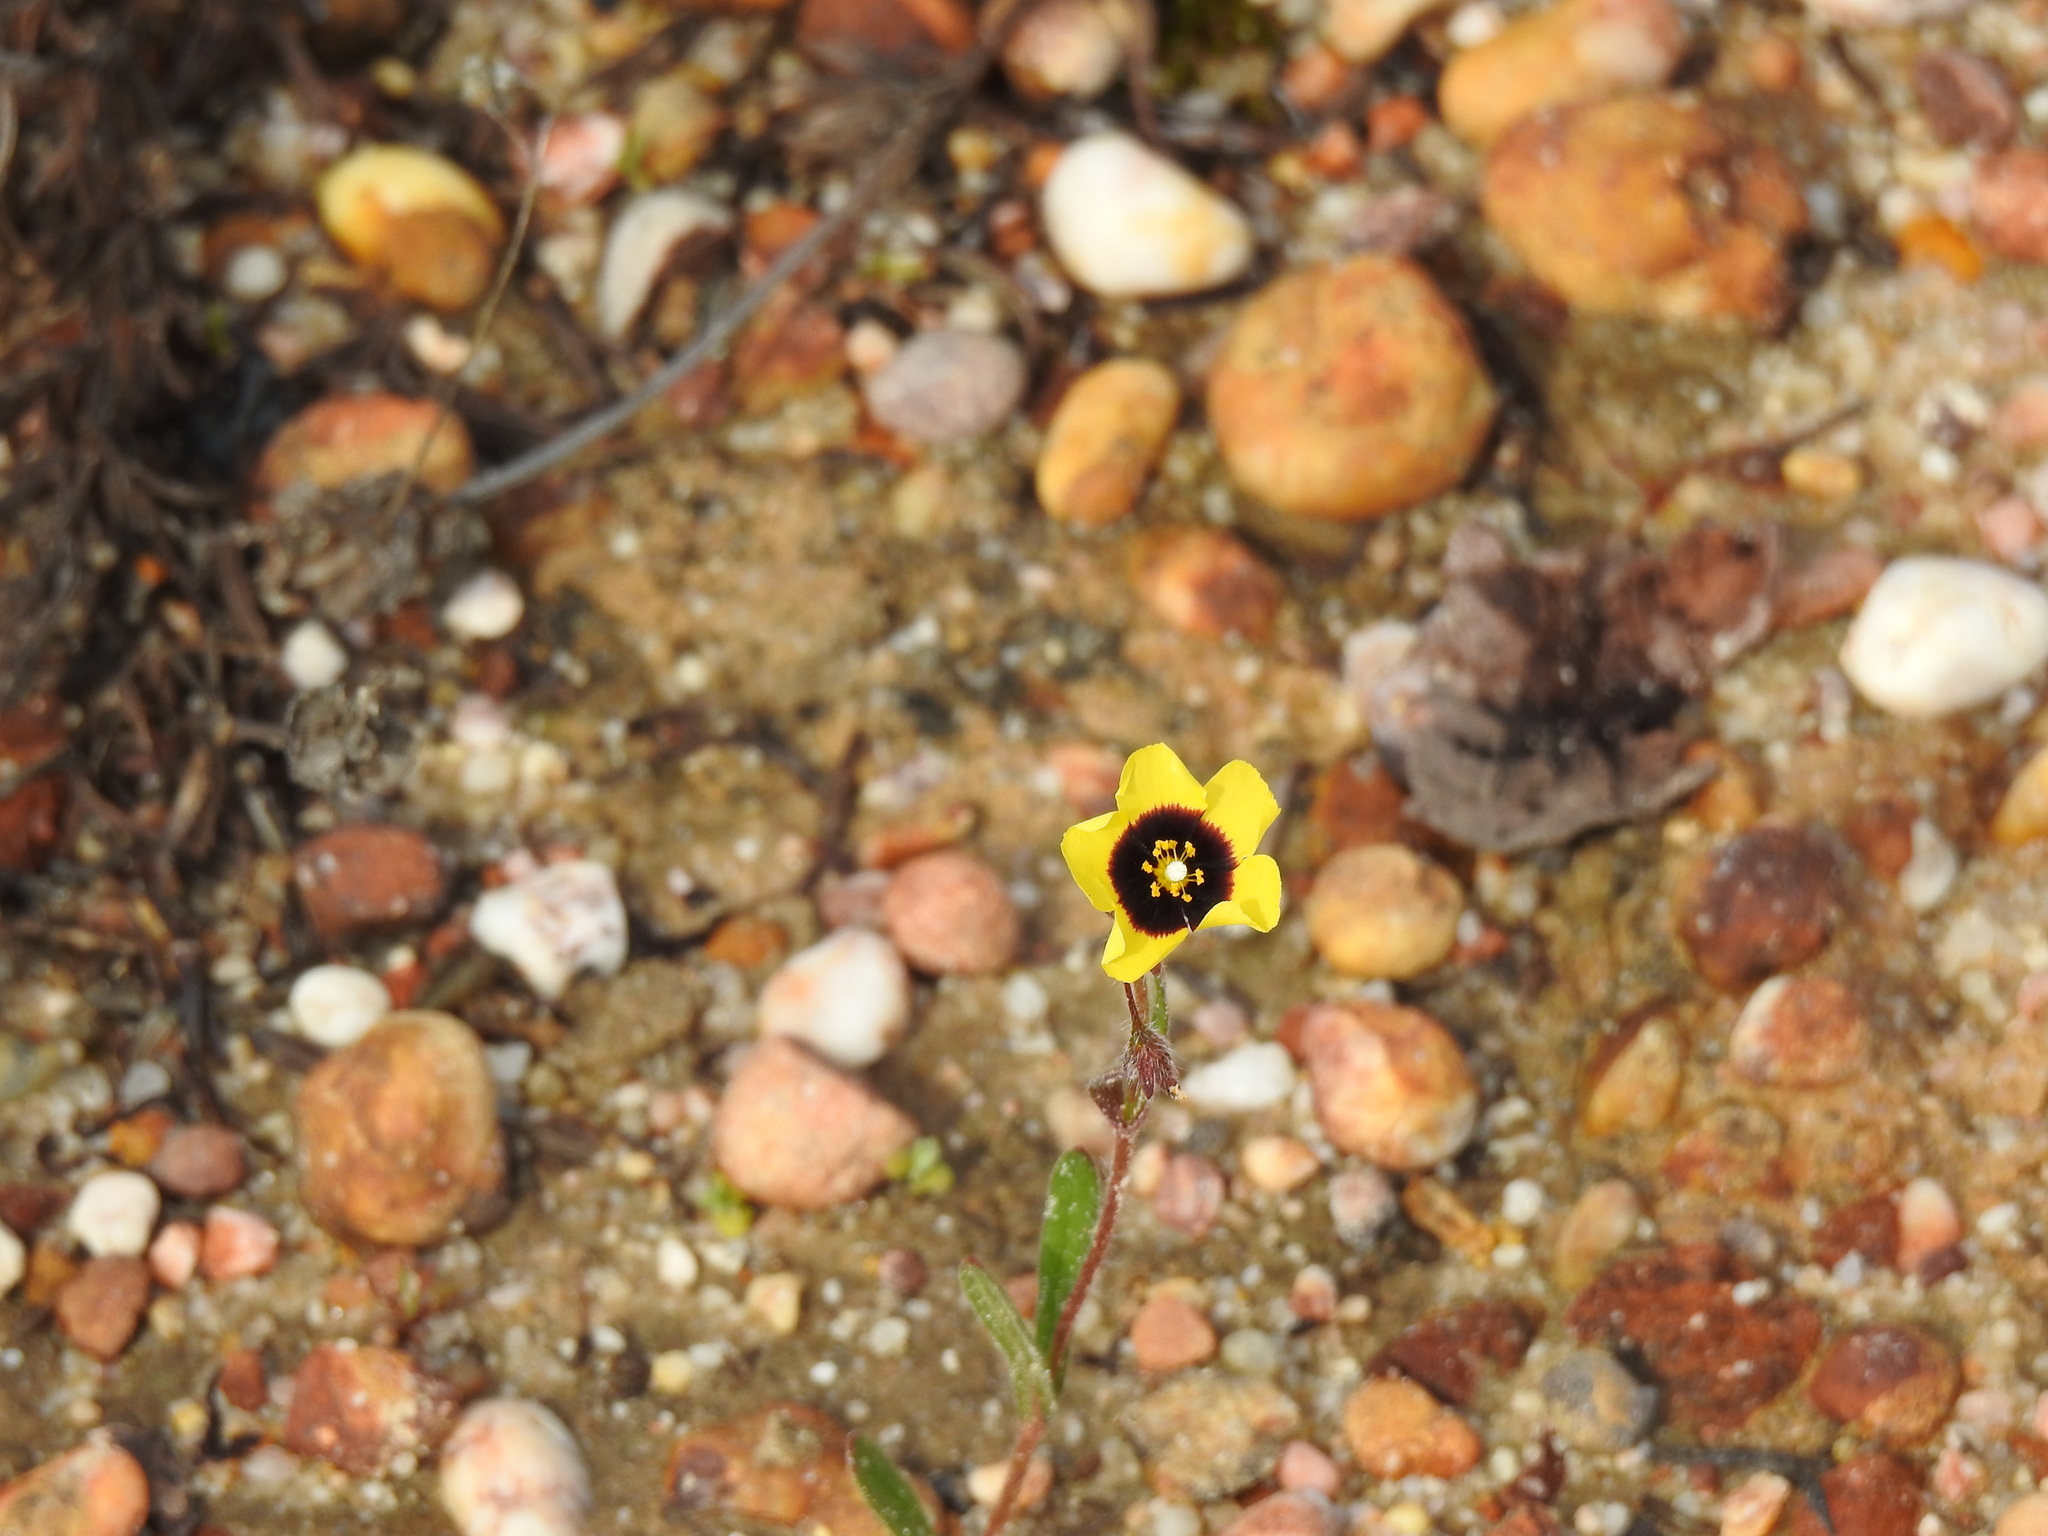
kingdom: Plantae
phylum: Tracheophyta
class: Magnoliopsida
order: Malvales
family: Cistaceae
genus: Tuberaria
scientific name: Tuberaria guttata
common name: Spotted rock-rose
